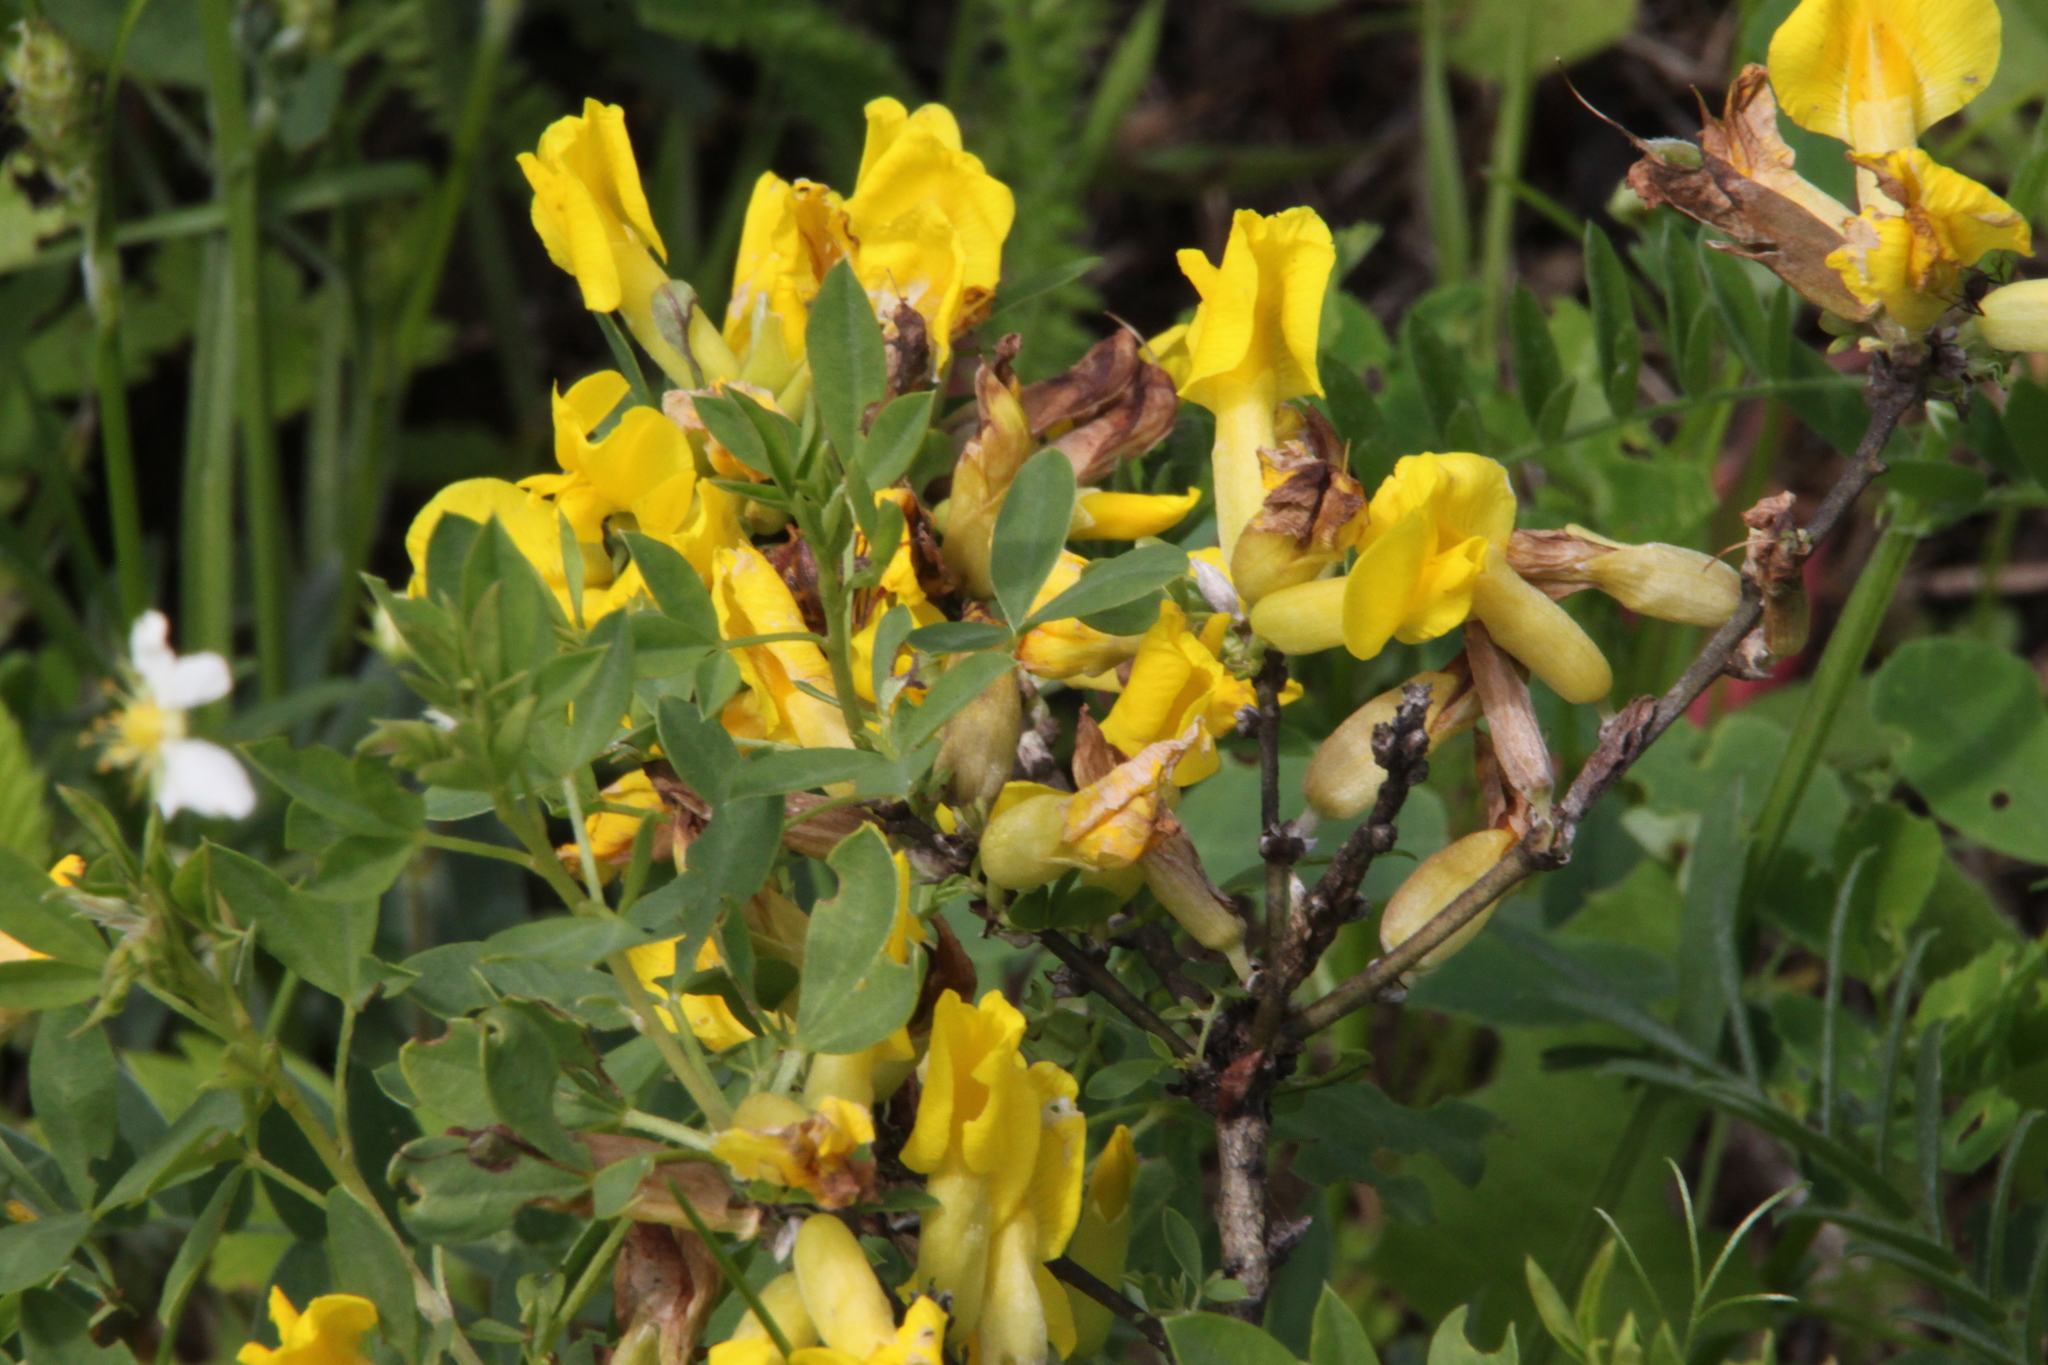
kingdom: Plantae
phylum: Tracheophyta
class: Magnoliopsida
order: Fabales
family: Fabaceae
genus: Chamaecytisus
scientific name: Chamaecytisus ruthenicus
